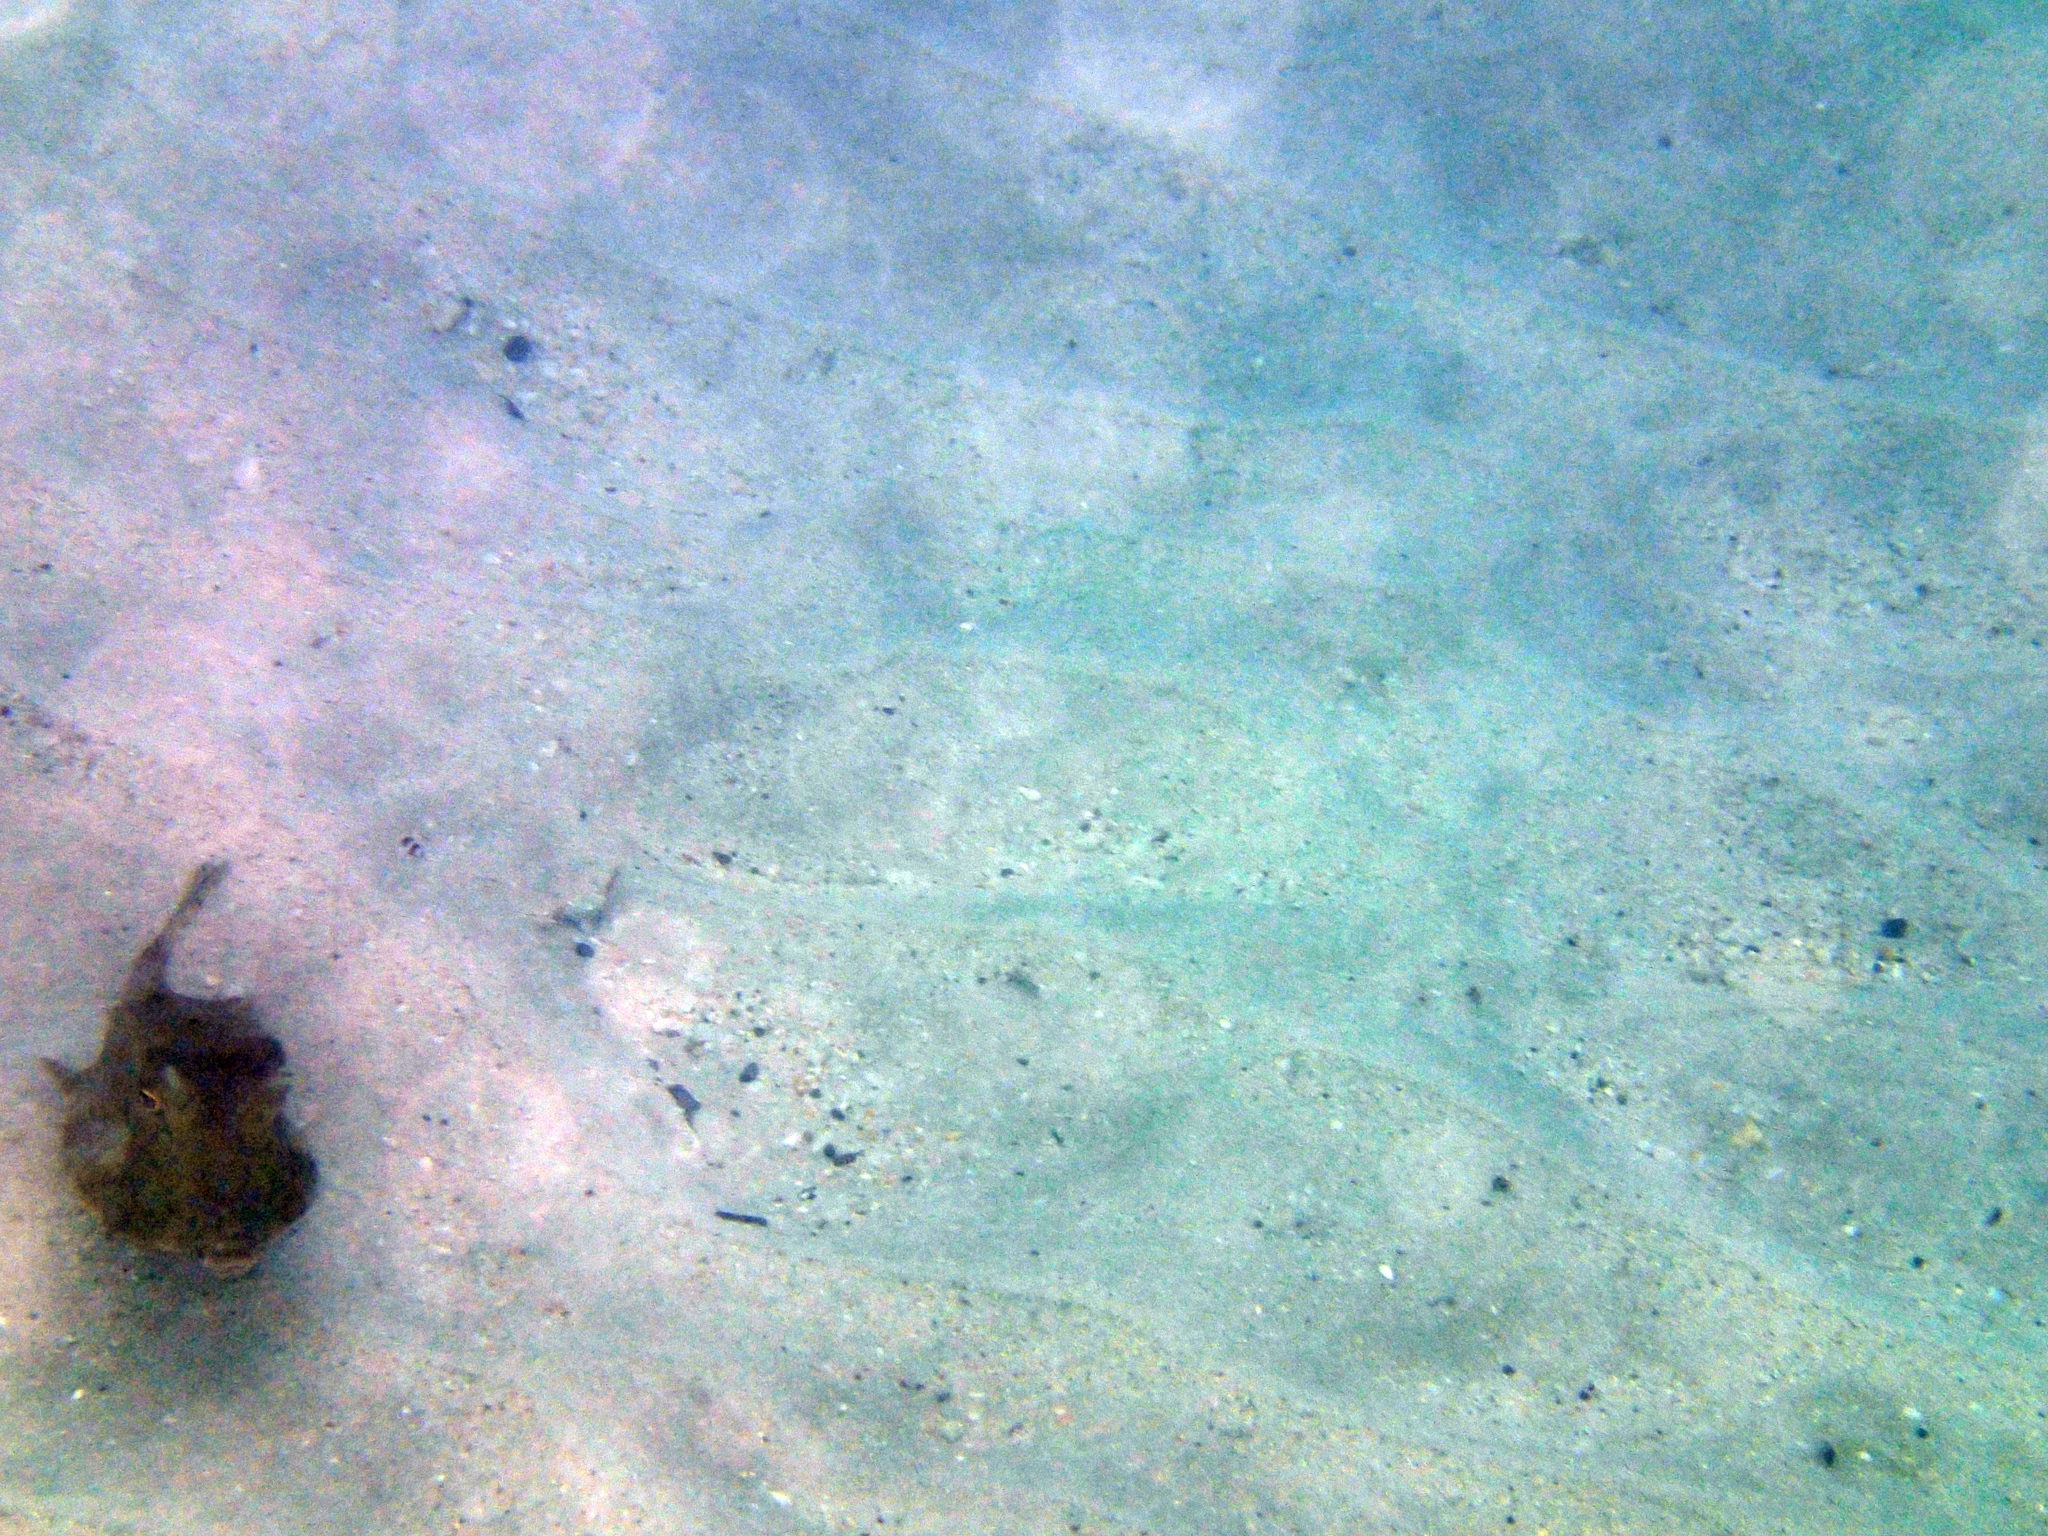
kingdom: Animalia
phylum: Chordata
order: Tetraodontiformes
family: Ostraciidae
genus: Lactoria
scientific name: Lactoria cornuta
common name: Longhorn cowfish
